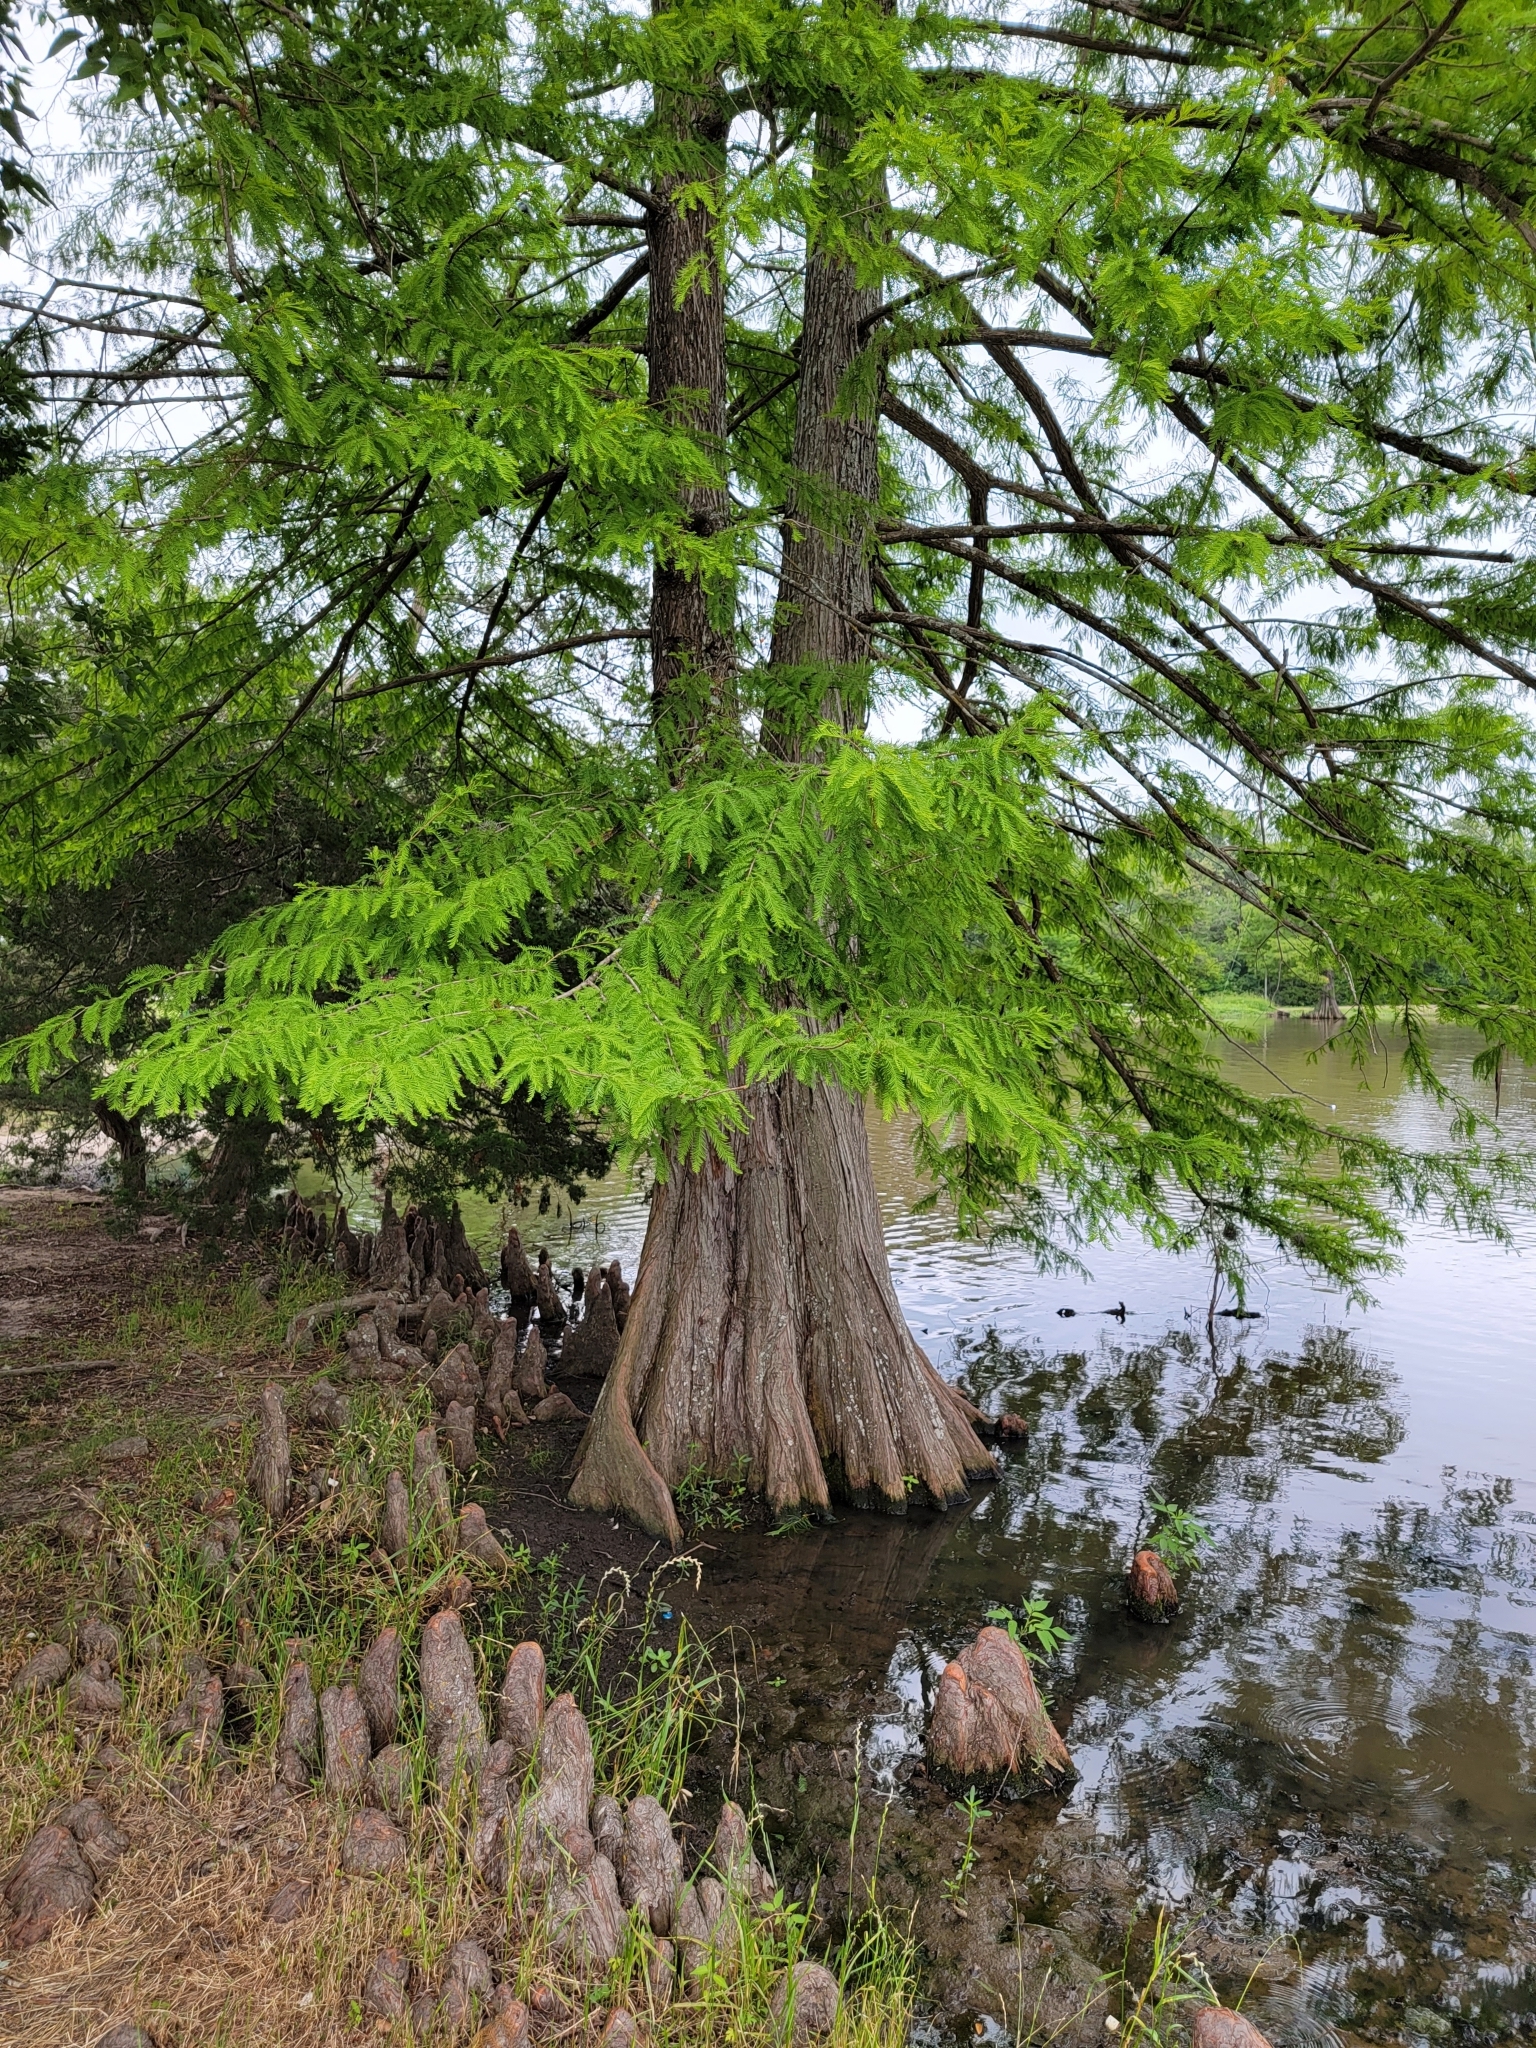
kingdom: Plantae
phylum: Tracheophyta
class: Pinopsida
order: Pinales
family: Cupressaceae
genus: Taxodium
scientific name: Taxodium distichum
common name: Bald cypress
